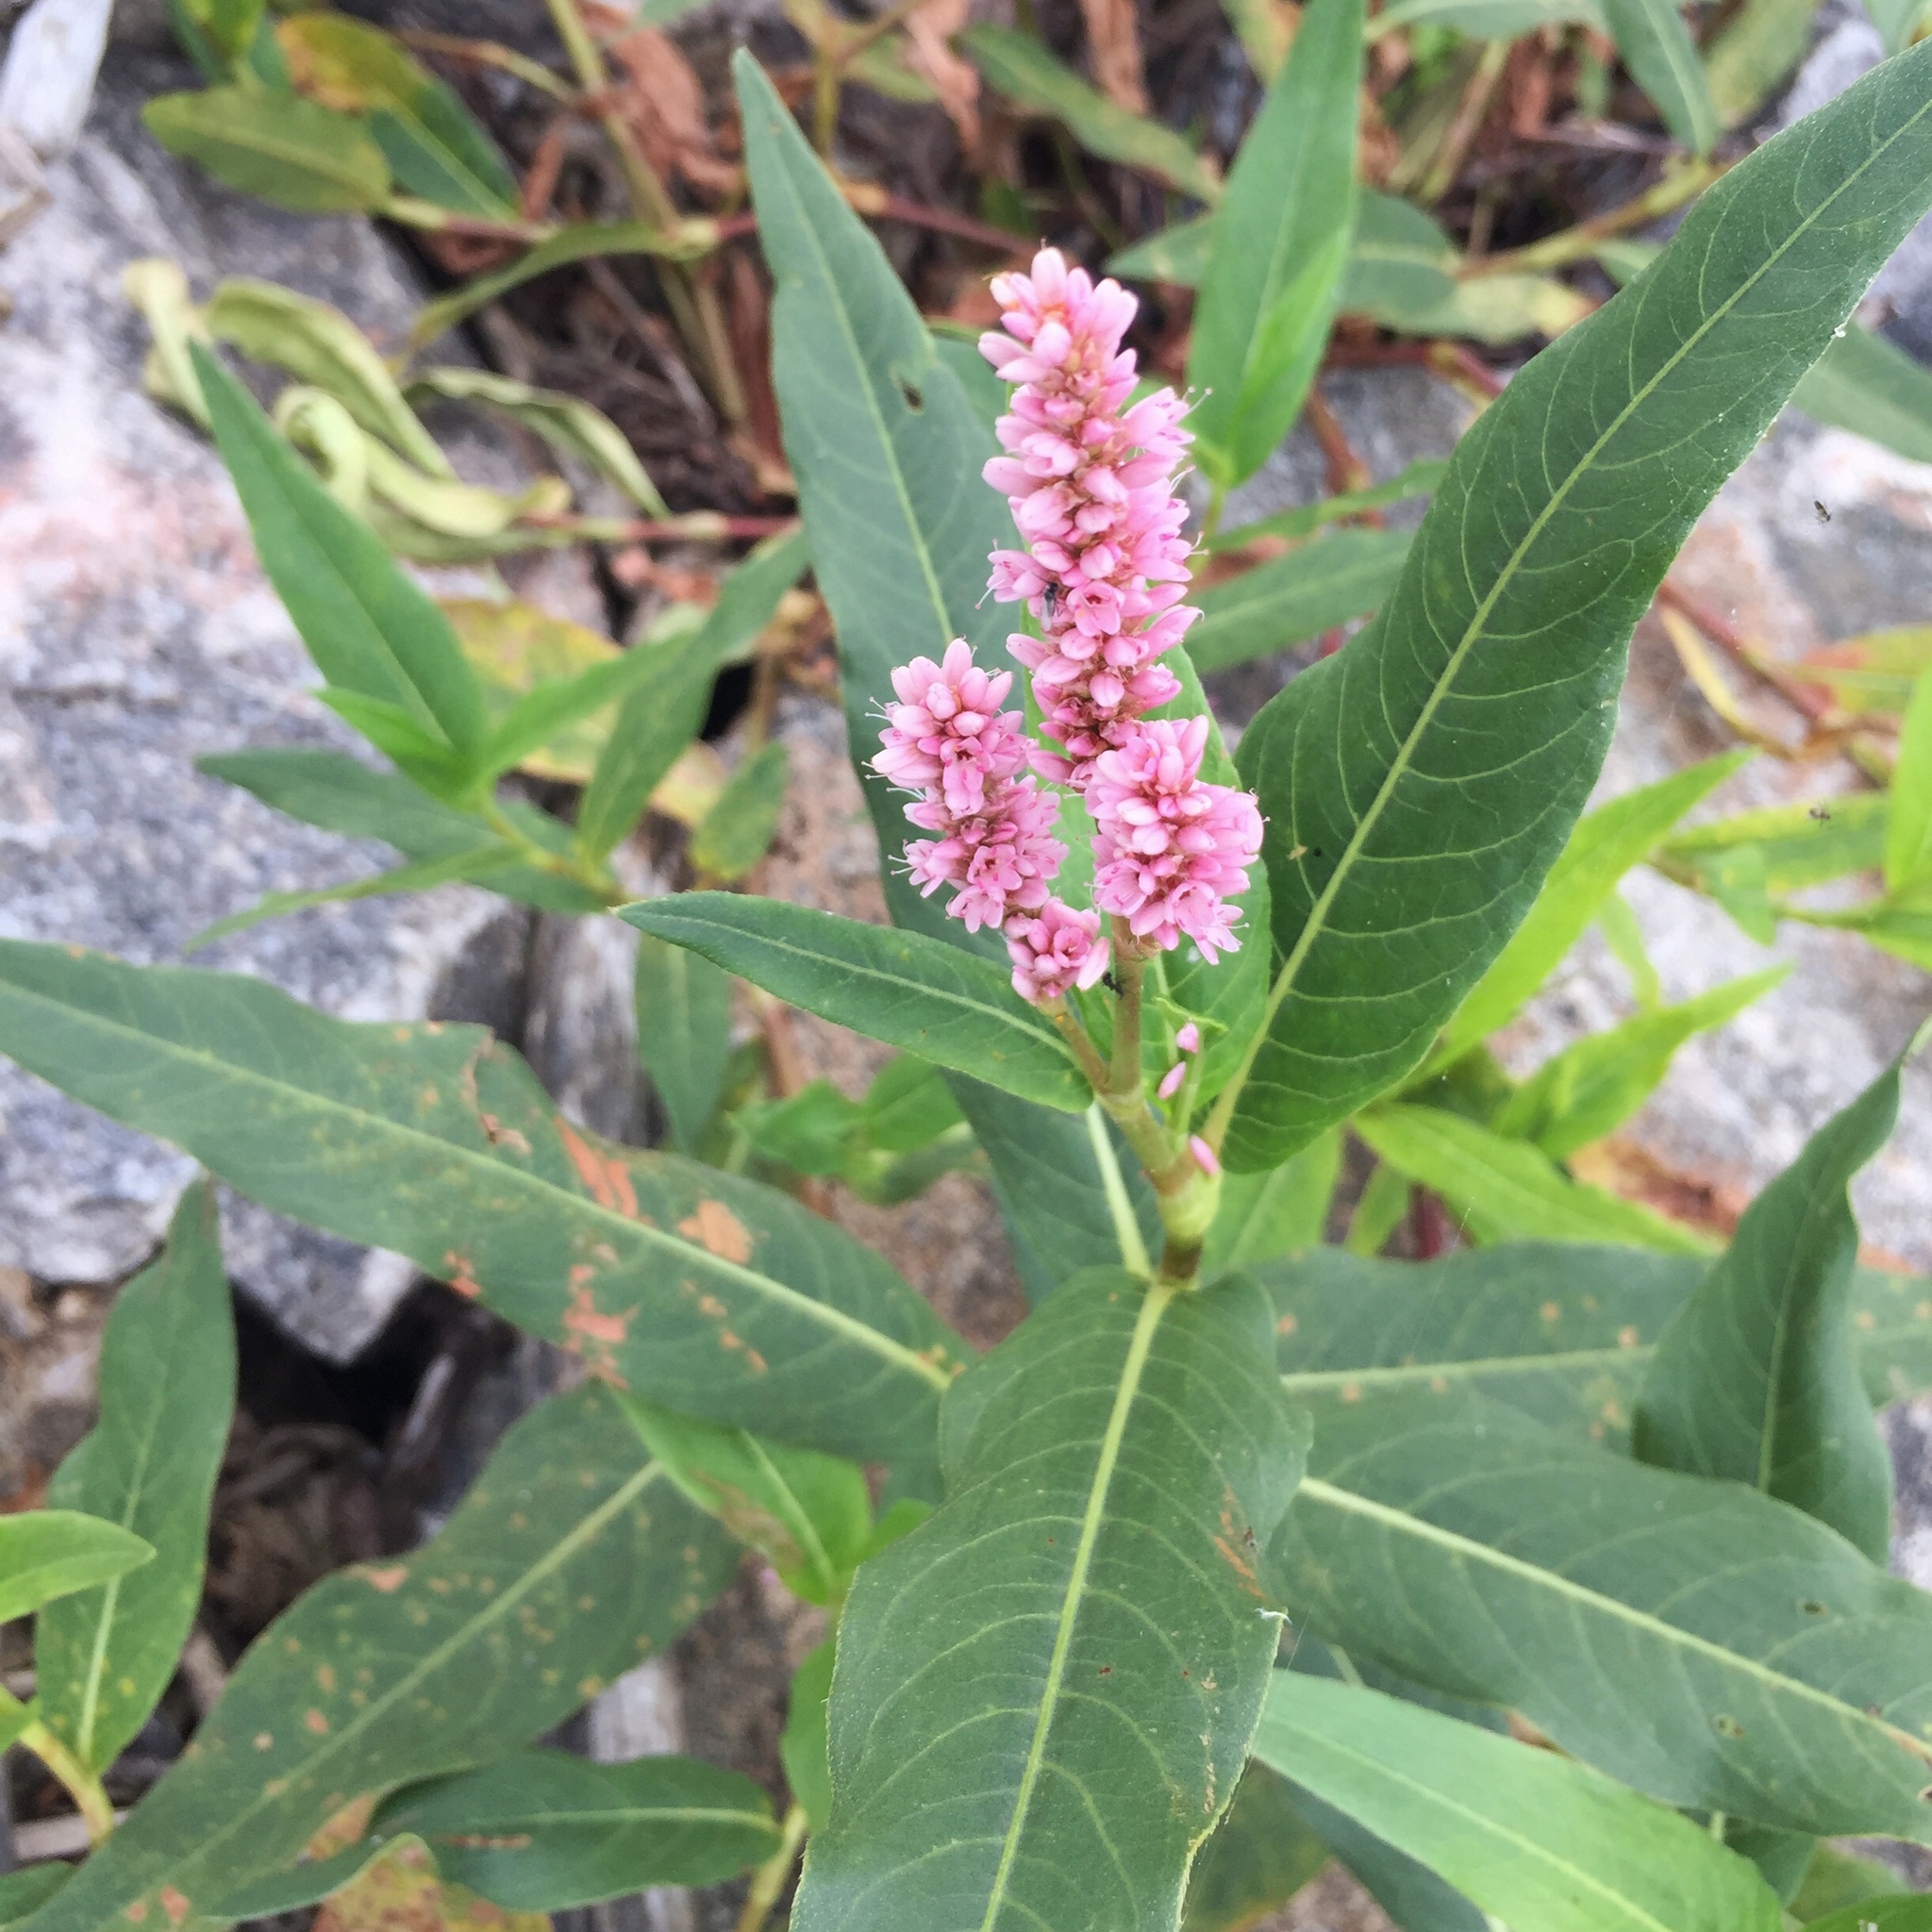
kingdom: Plantae
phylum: Tracheophyta
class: Magnoliopsida
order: Caryophyllales
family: Polygonaceae
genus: Persicaria
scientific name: Persicaria amphibia
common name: Amphibious bistort
